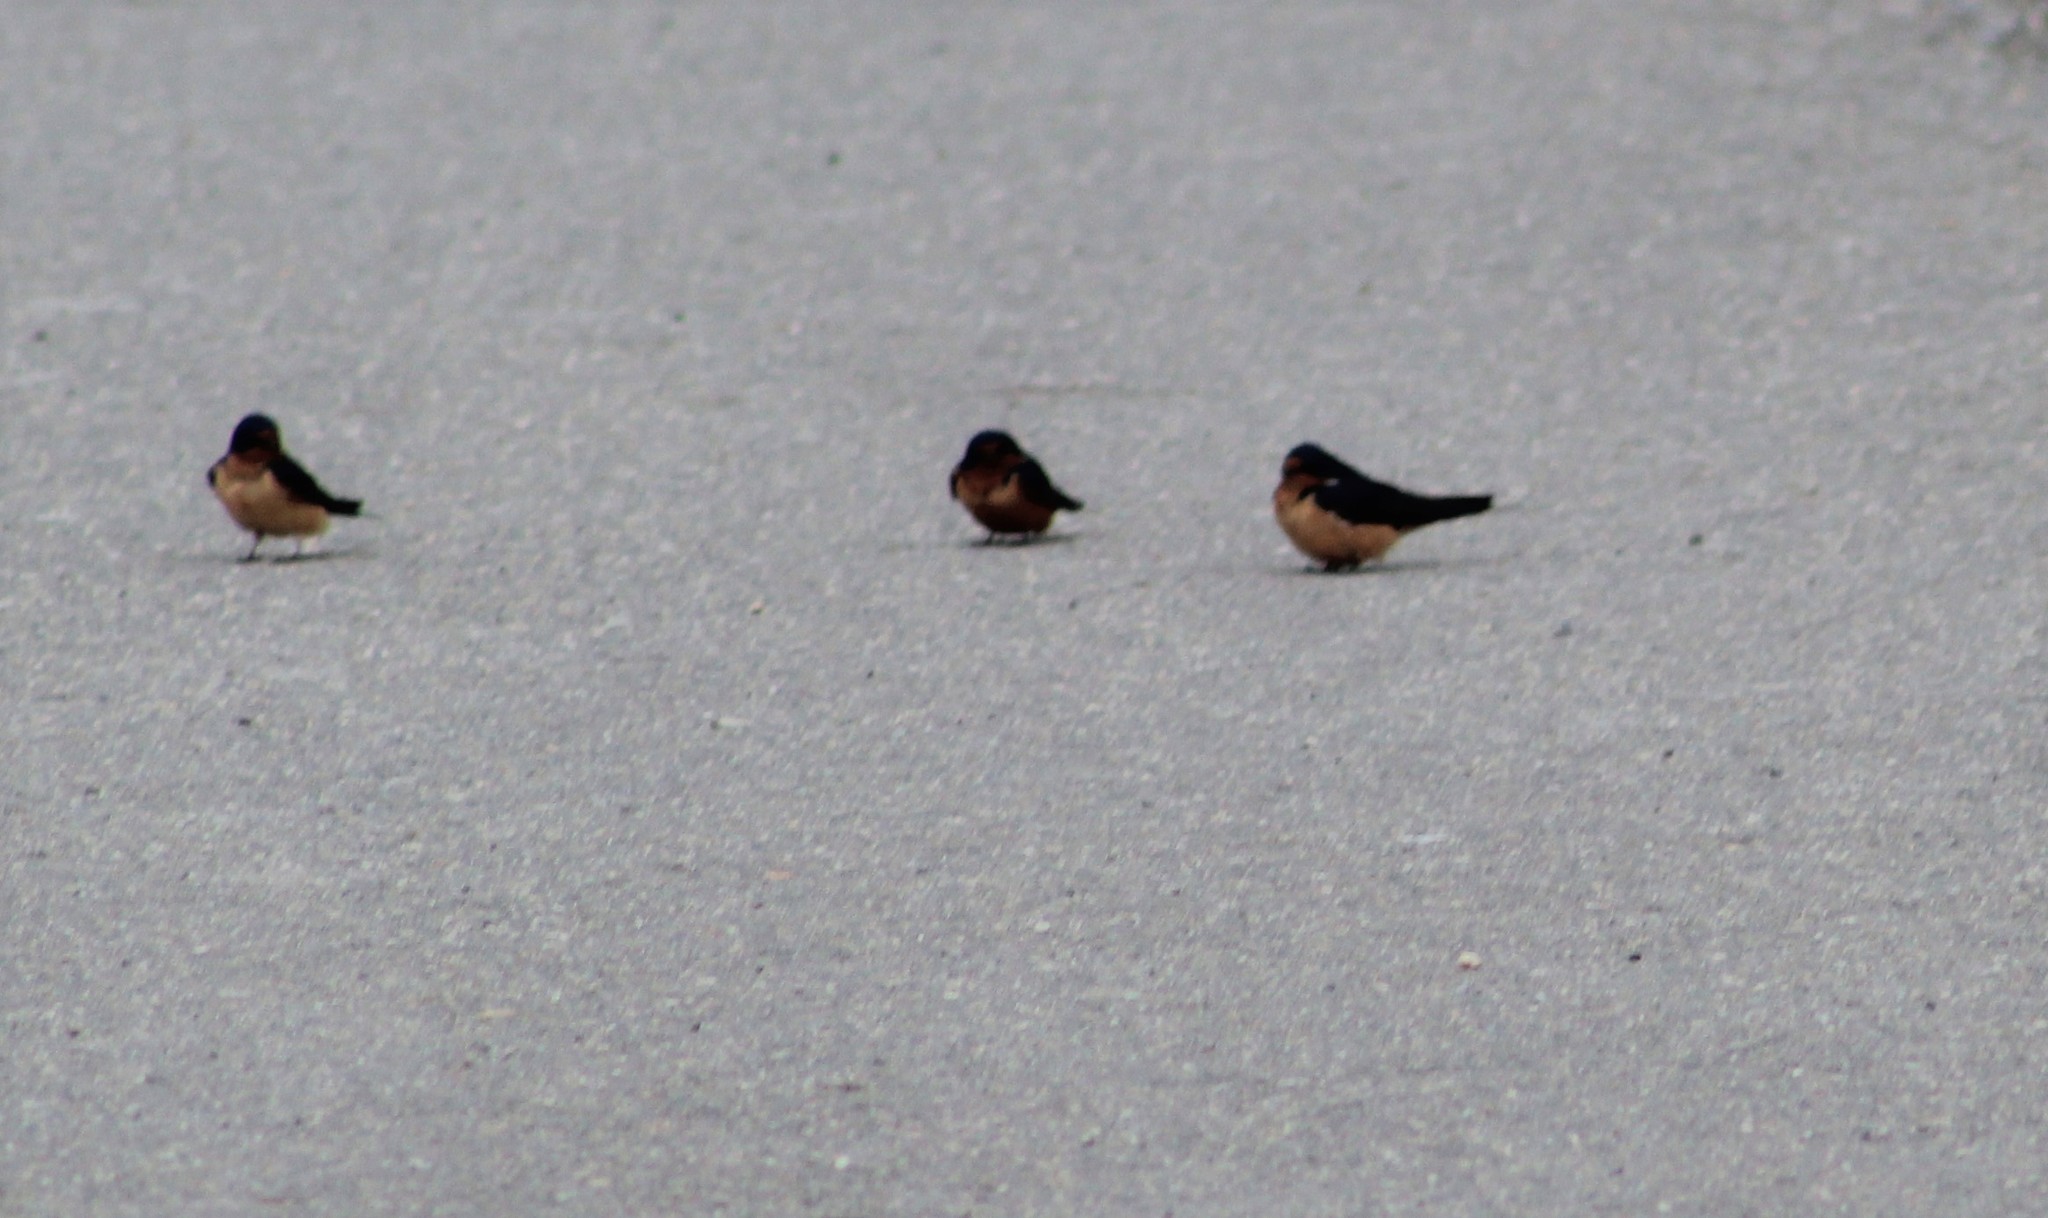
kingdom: Animalia
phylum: Chordata
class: Aves
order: Passeriformes
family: Hirundinidae
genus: Hirundo
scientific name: Hirundo rustica
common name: Barn swallow
